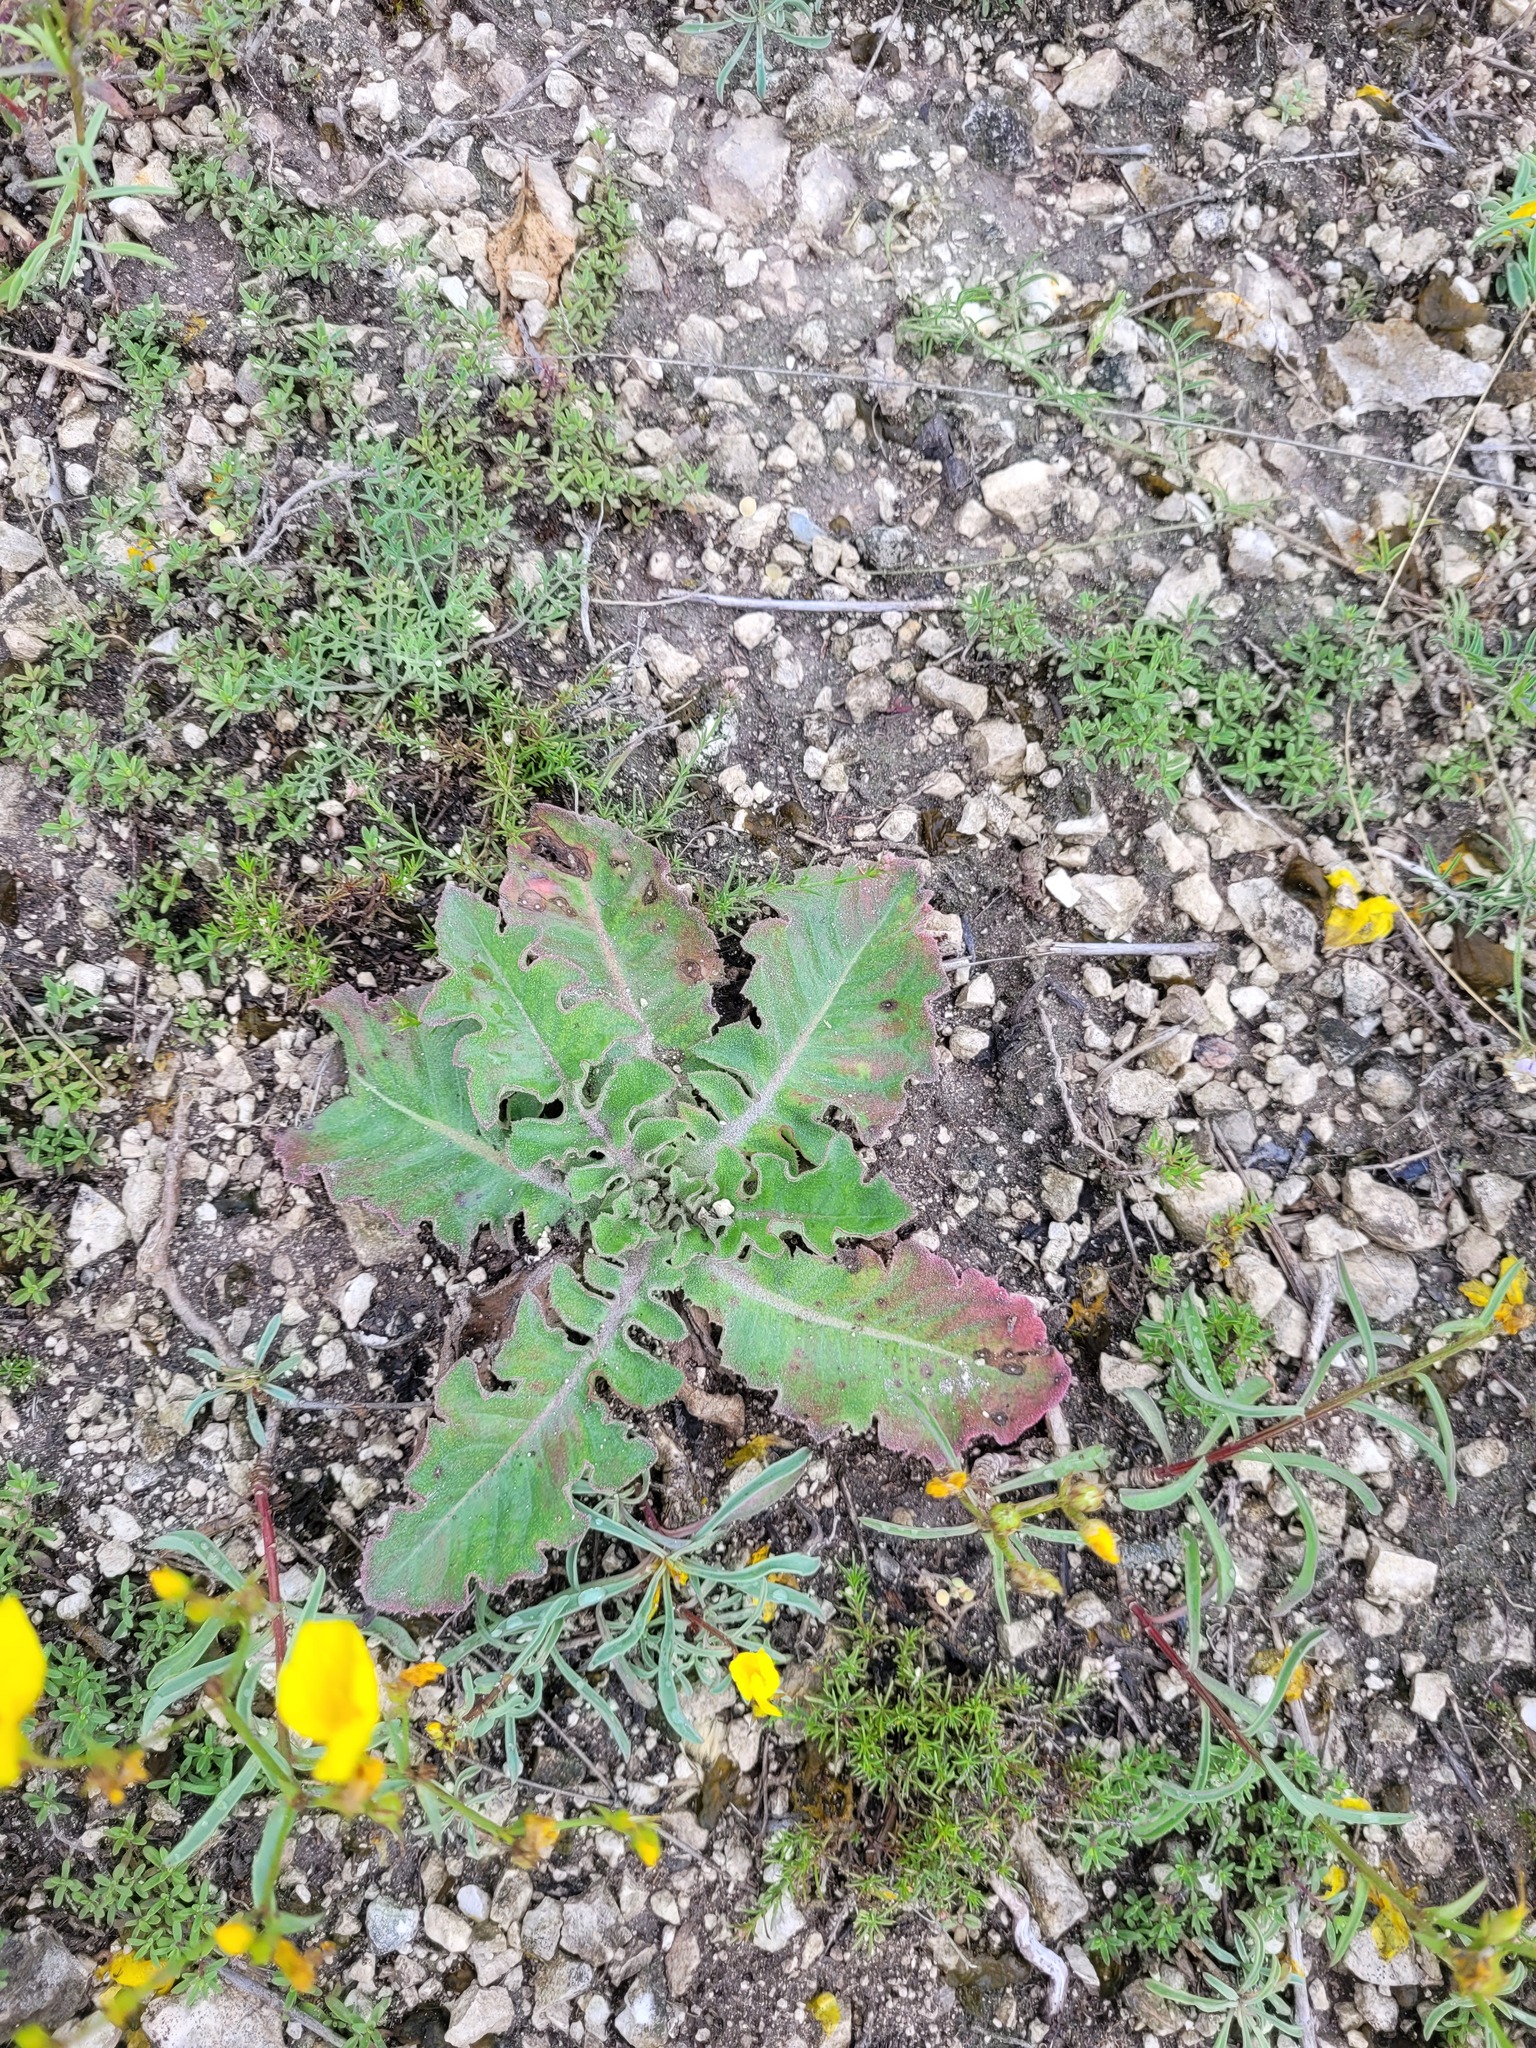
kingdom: Plantae
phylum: Tracheophyta
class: Magnoliopsida
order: Asterales
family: Asteraceae
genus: Taraxacum
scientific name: Taraxacum serotinum
